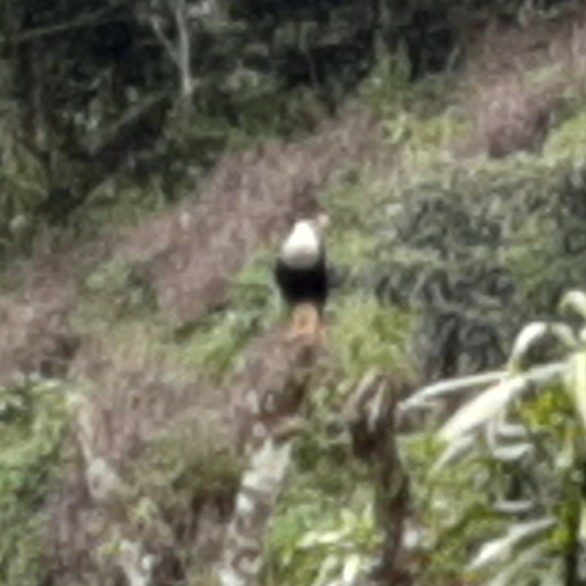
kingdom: Animalia
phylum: Chordata
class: Aves
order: Falconiformes
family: Falconidae
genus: Caracara
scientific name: Caracara plancus
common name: Southern caracara
